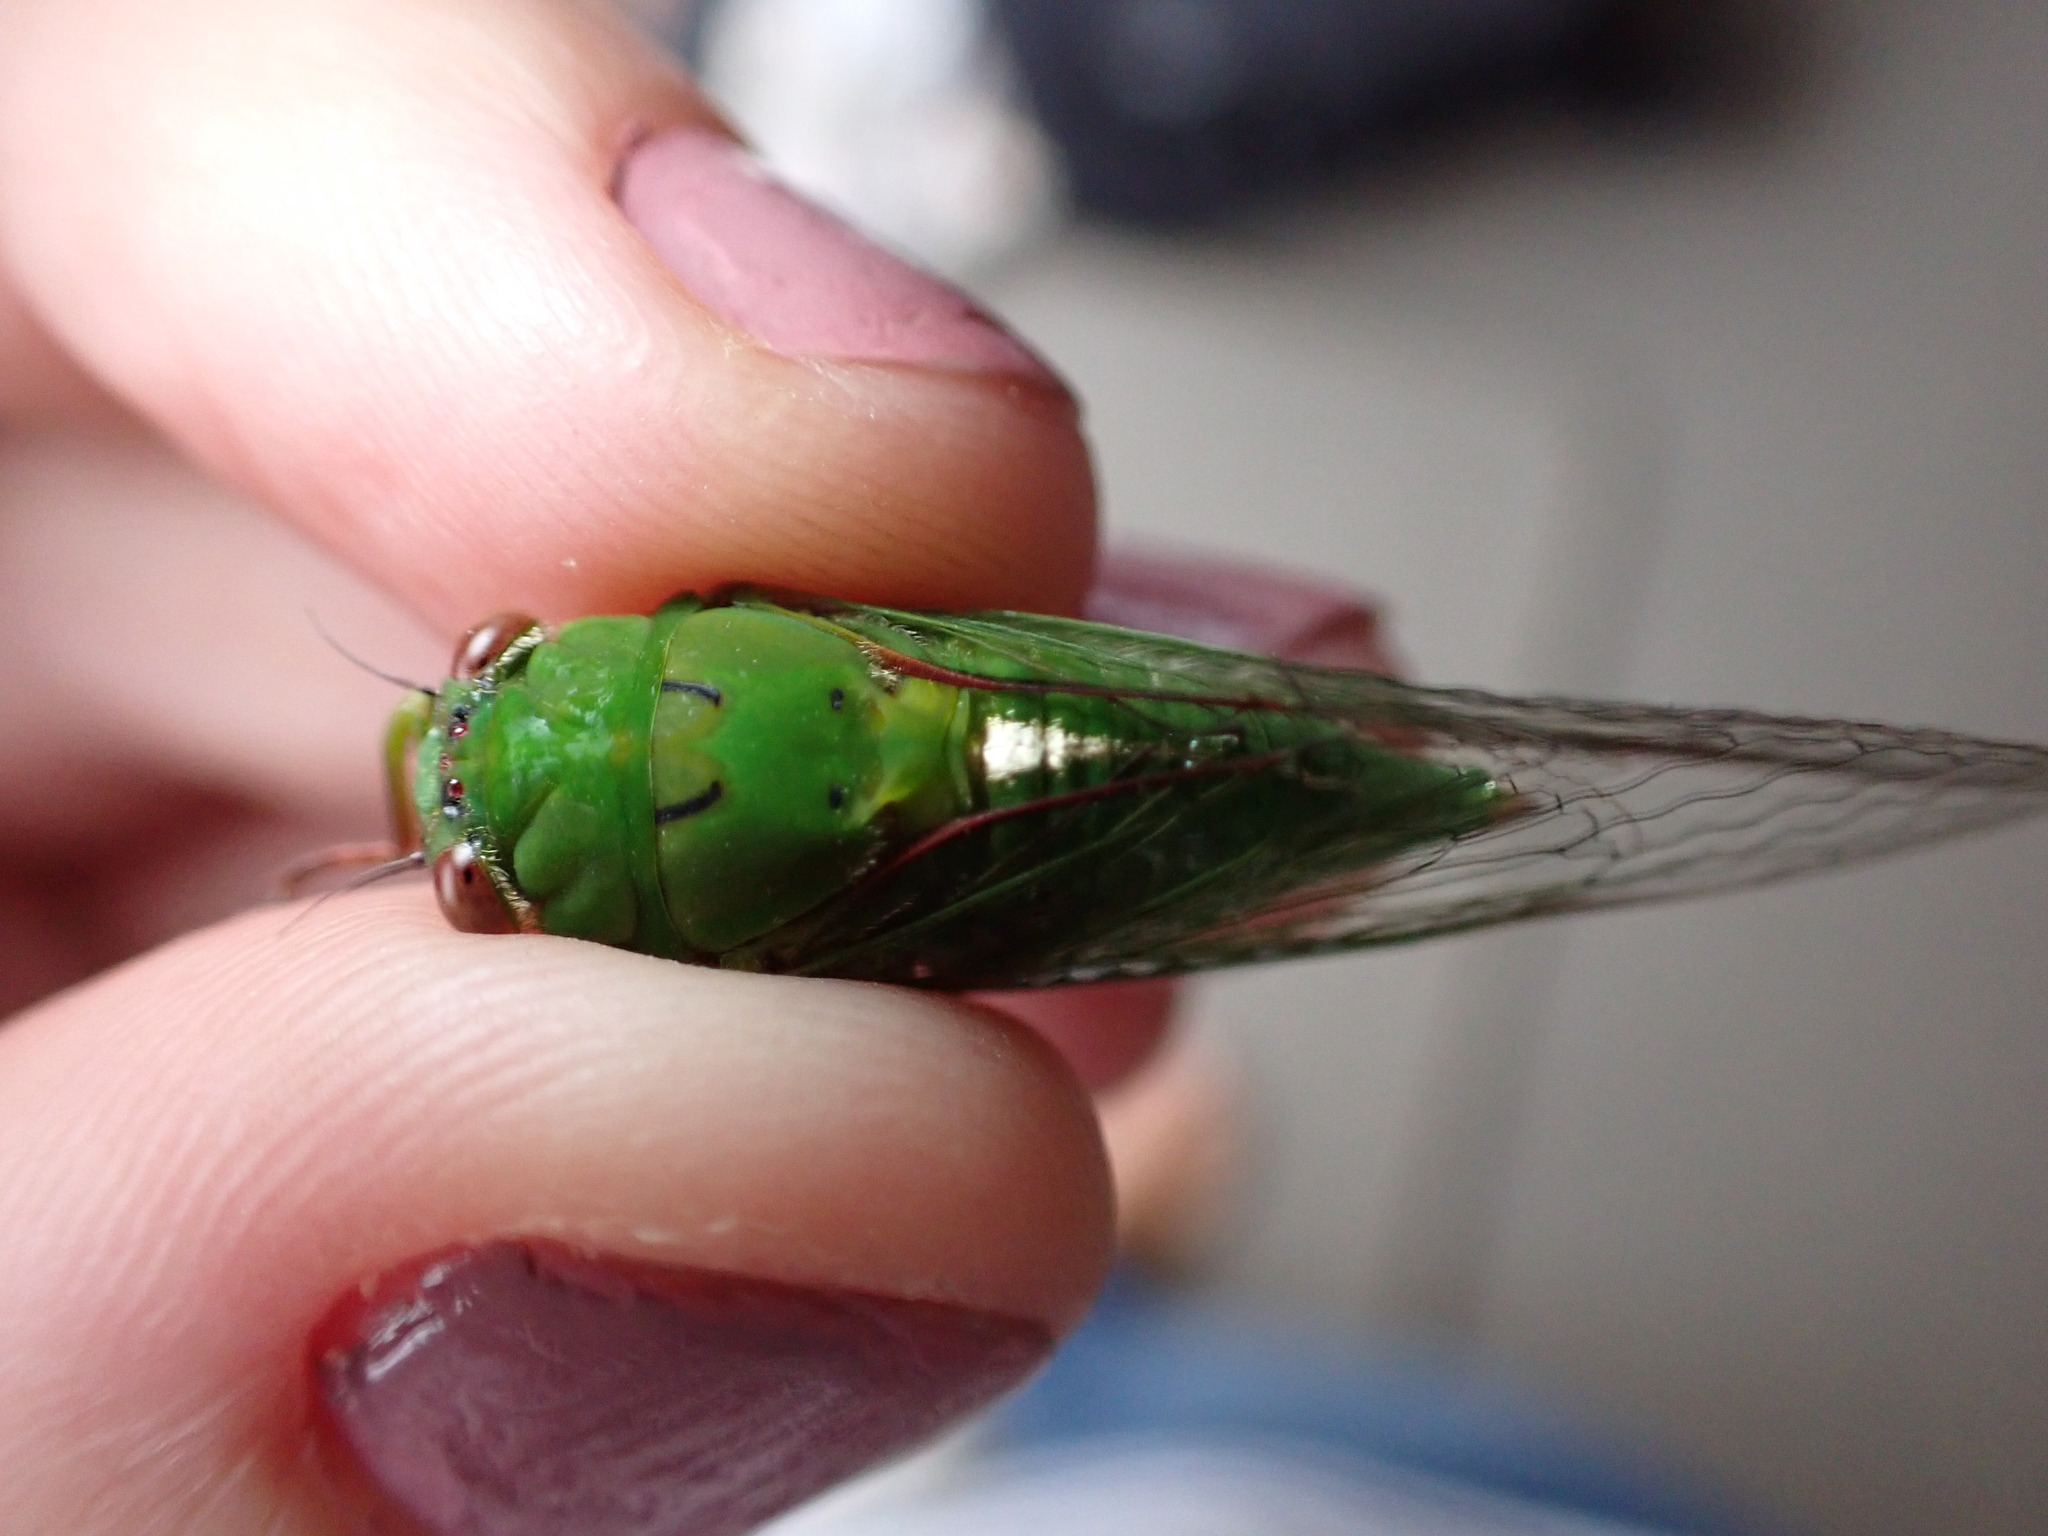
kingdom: Animalia
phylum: Arthropoda
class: Insecta
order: Hemiptera
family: Cicadidae
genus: Kikihia
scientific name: Kikihia ochrina
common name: April green cicada
